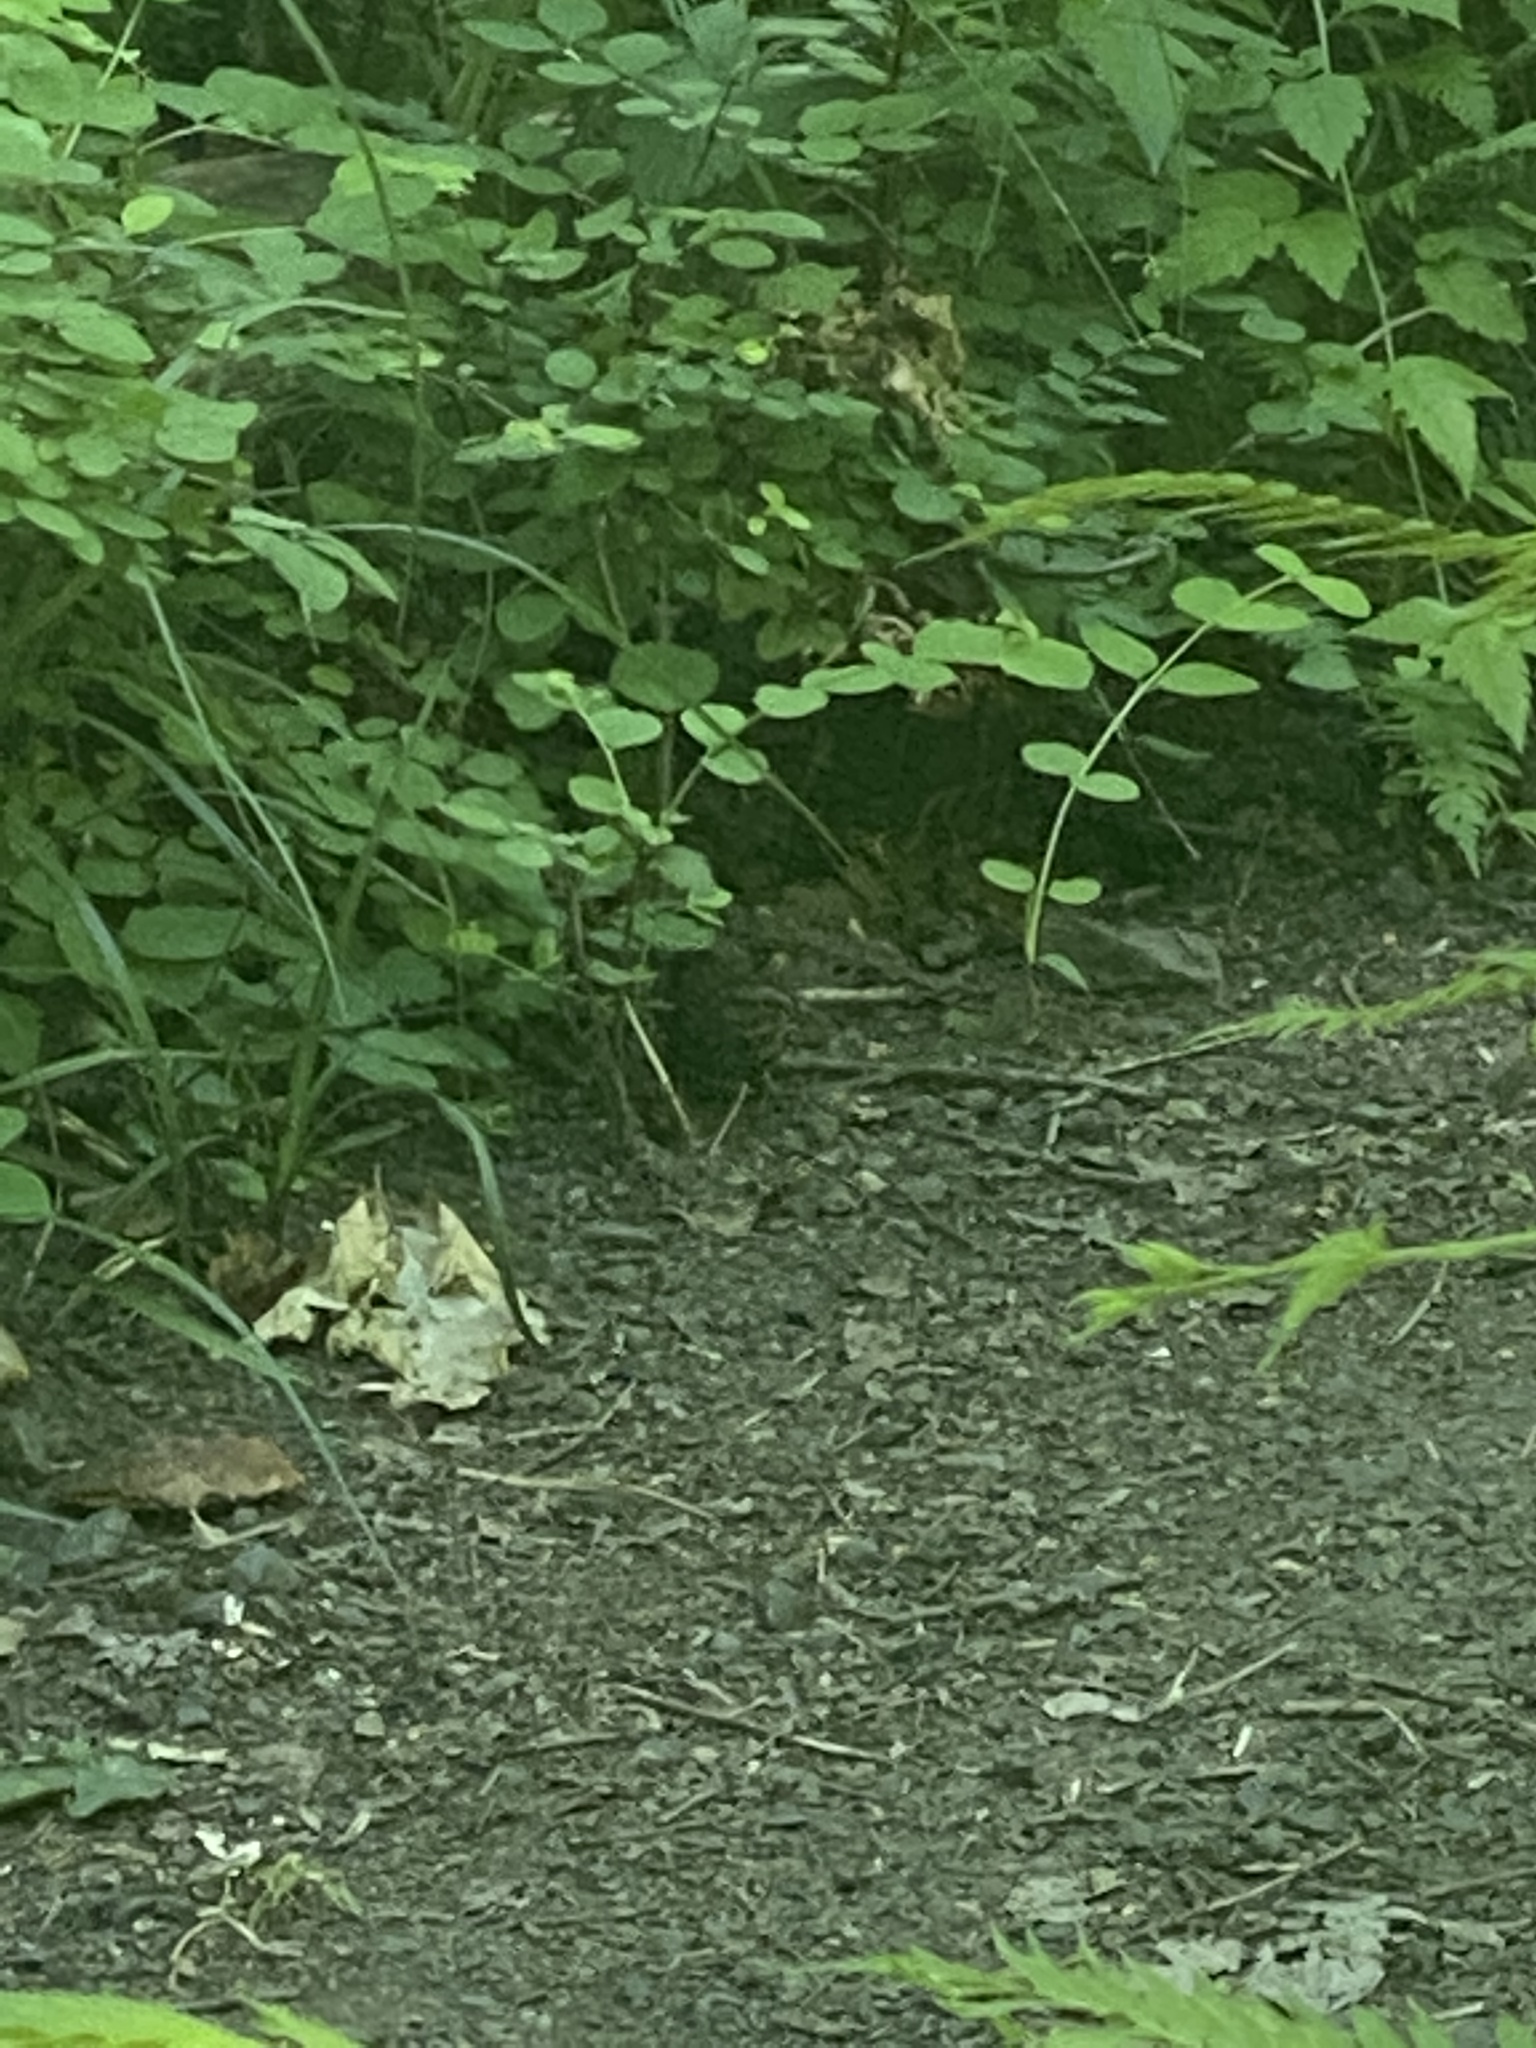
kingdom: Animalia
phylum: Chordata
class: Aves
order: Passeriformes
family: Passerellidae
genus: Melospiza
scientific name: Melospiza melodia
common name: Song sparrow
